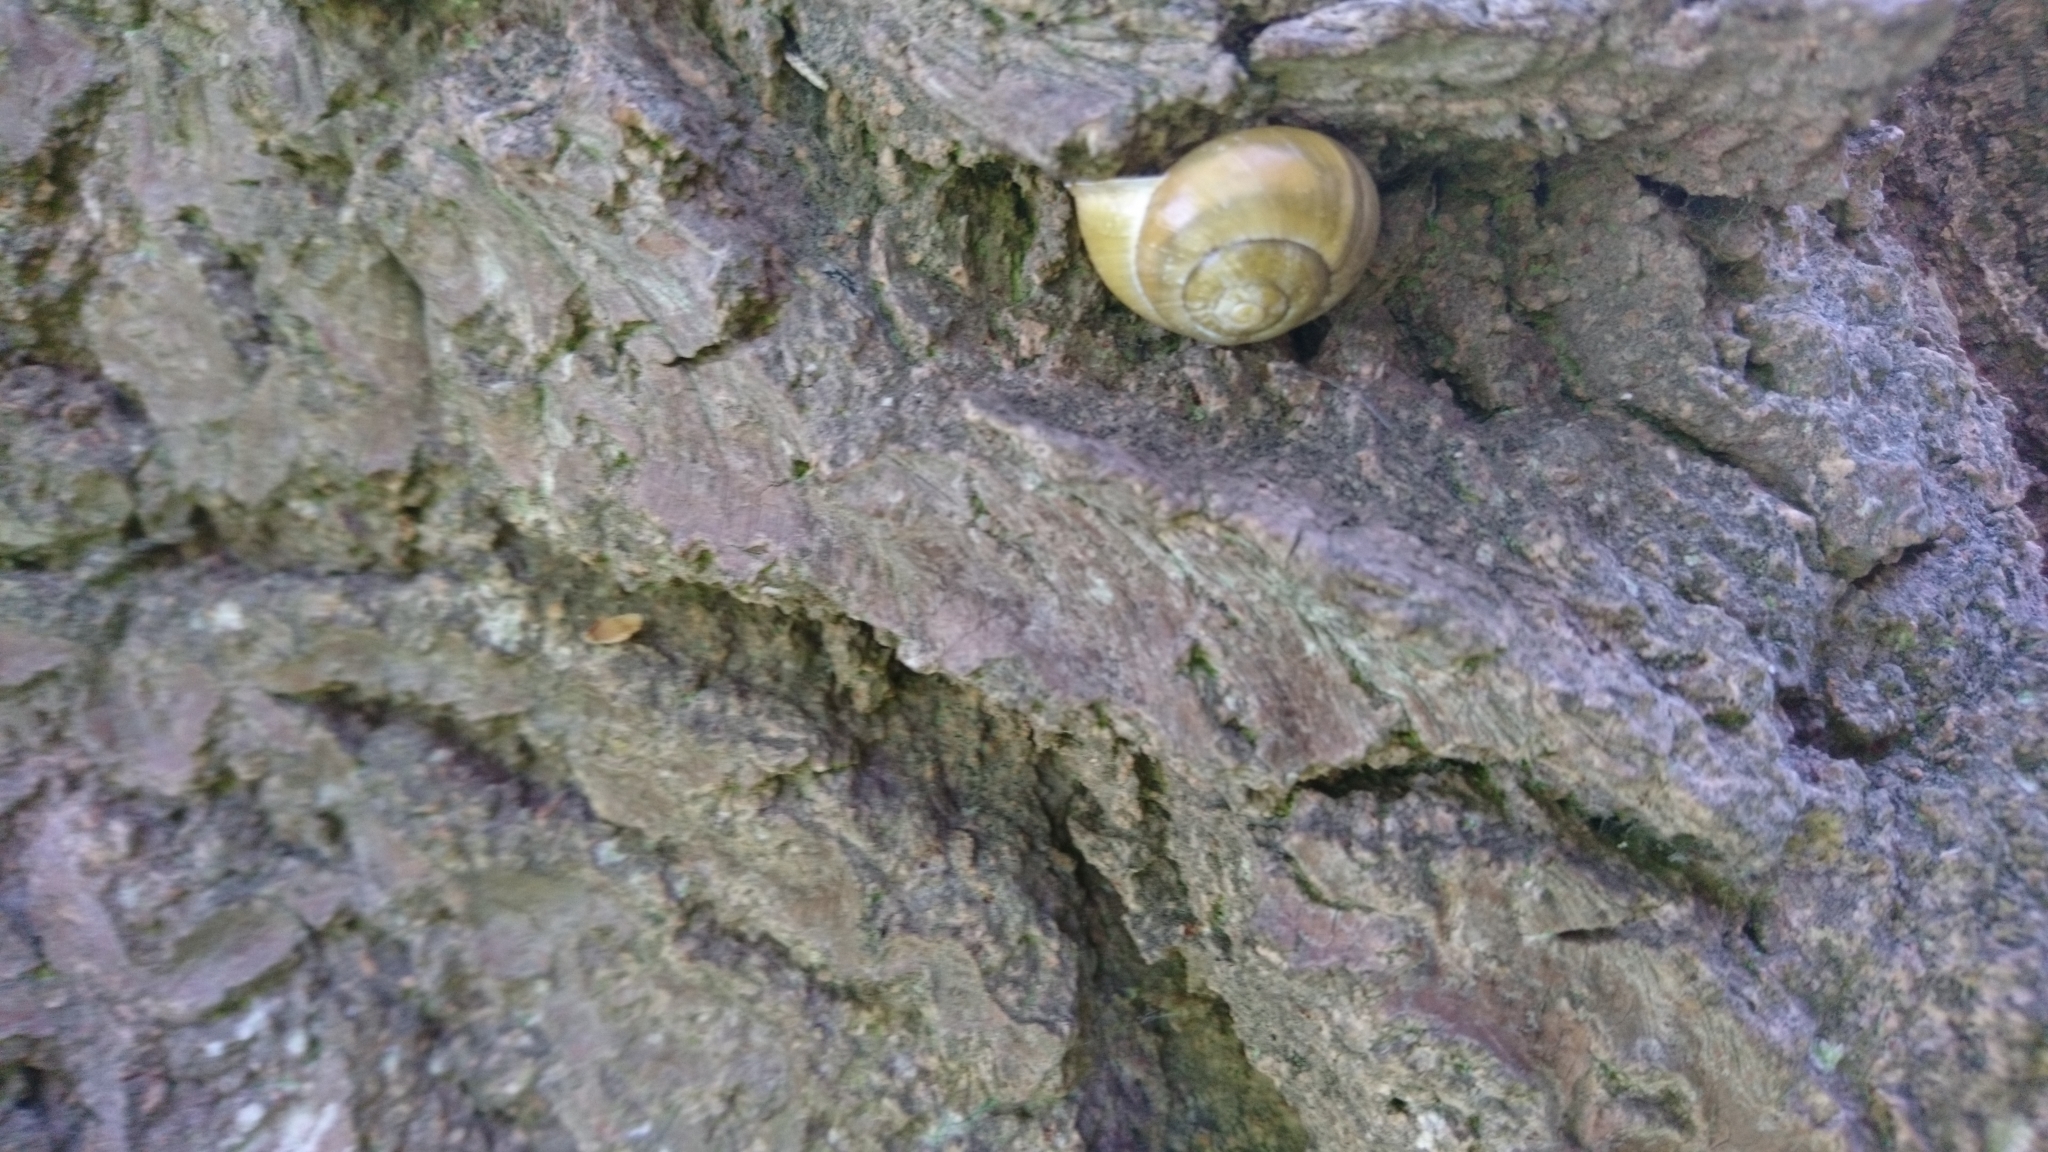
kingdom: Animalia
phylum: Mollusca
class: Gastropoda
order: Stylommatophora
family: Helicidae
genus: Cepaea
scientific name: Cepaea hortensis
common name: White-lip gardensnail
